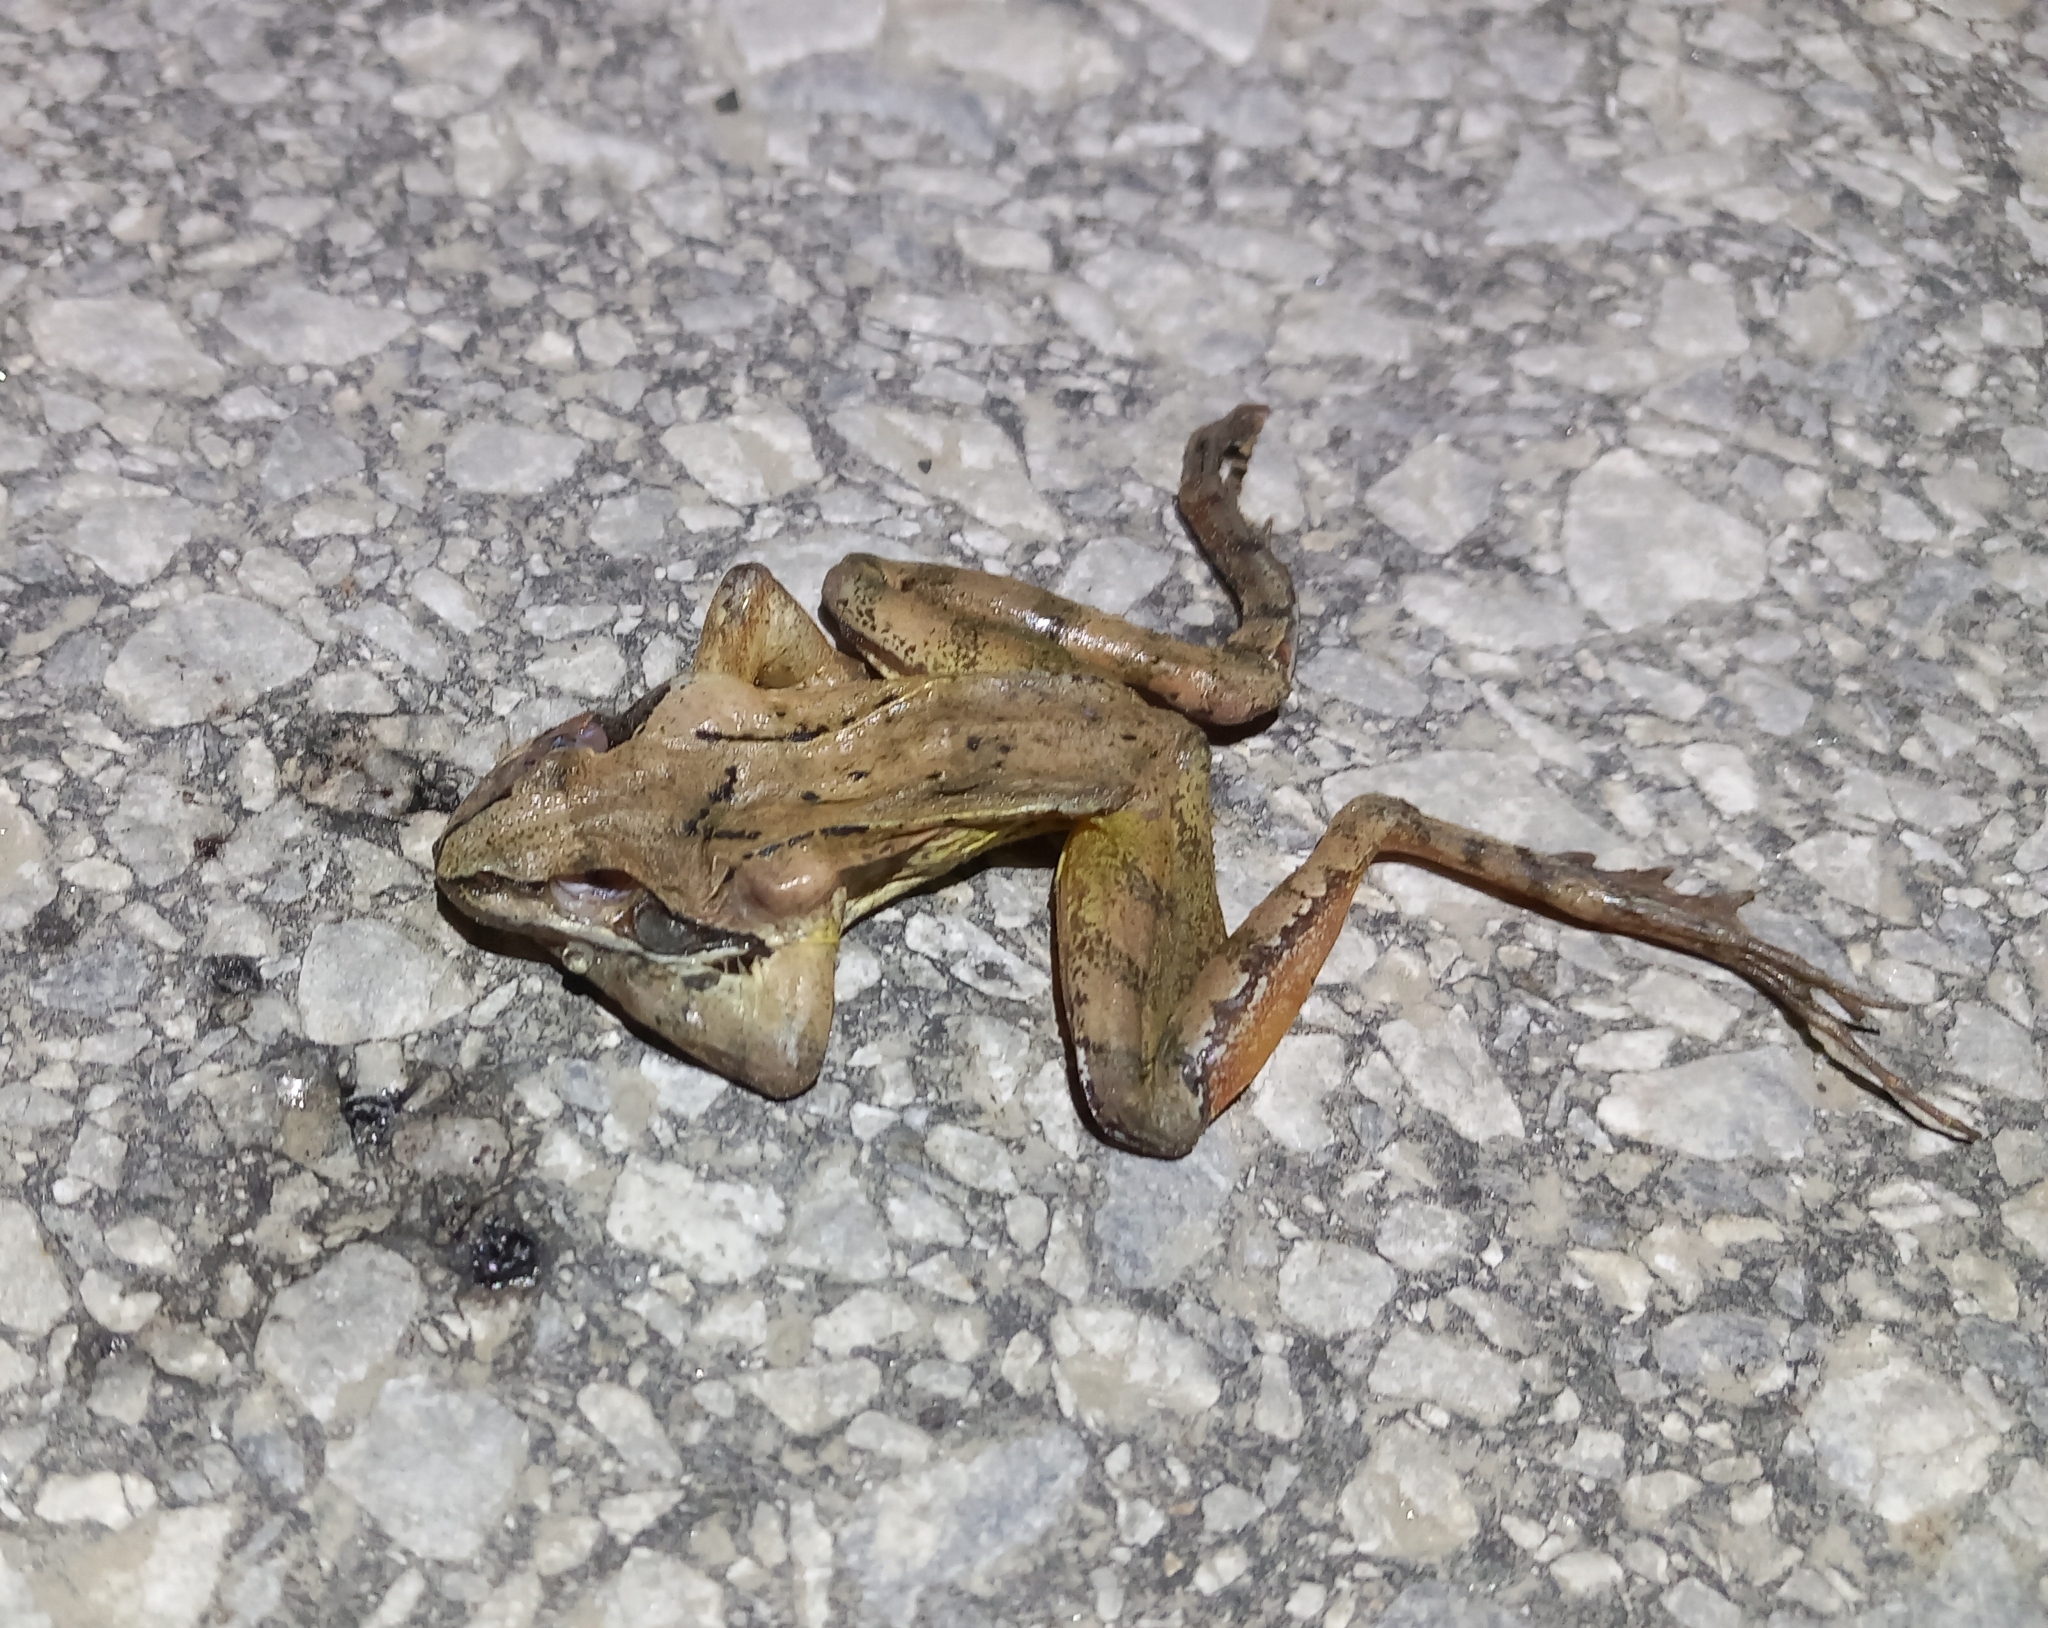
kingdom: Animalia
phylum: Chordata
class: Amphibia
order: Anura
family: Ranidae
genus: Rana
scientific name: Rana dalmatina
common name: Agile frog
